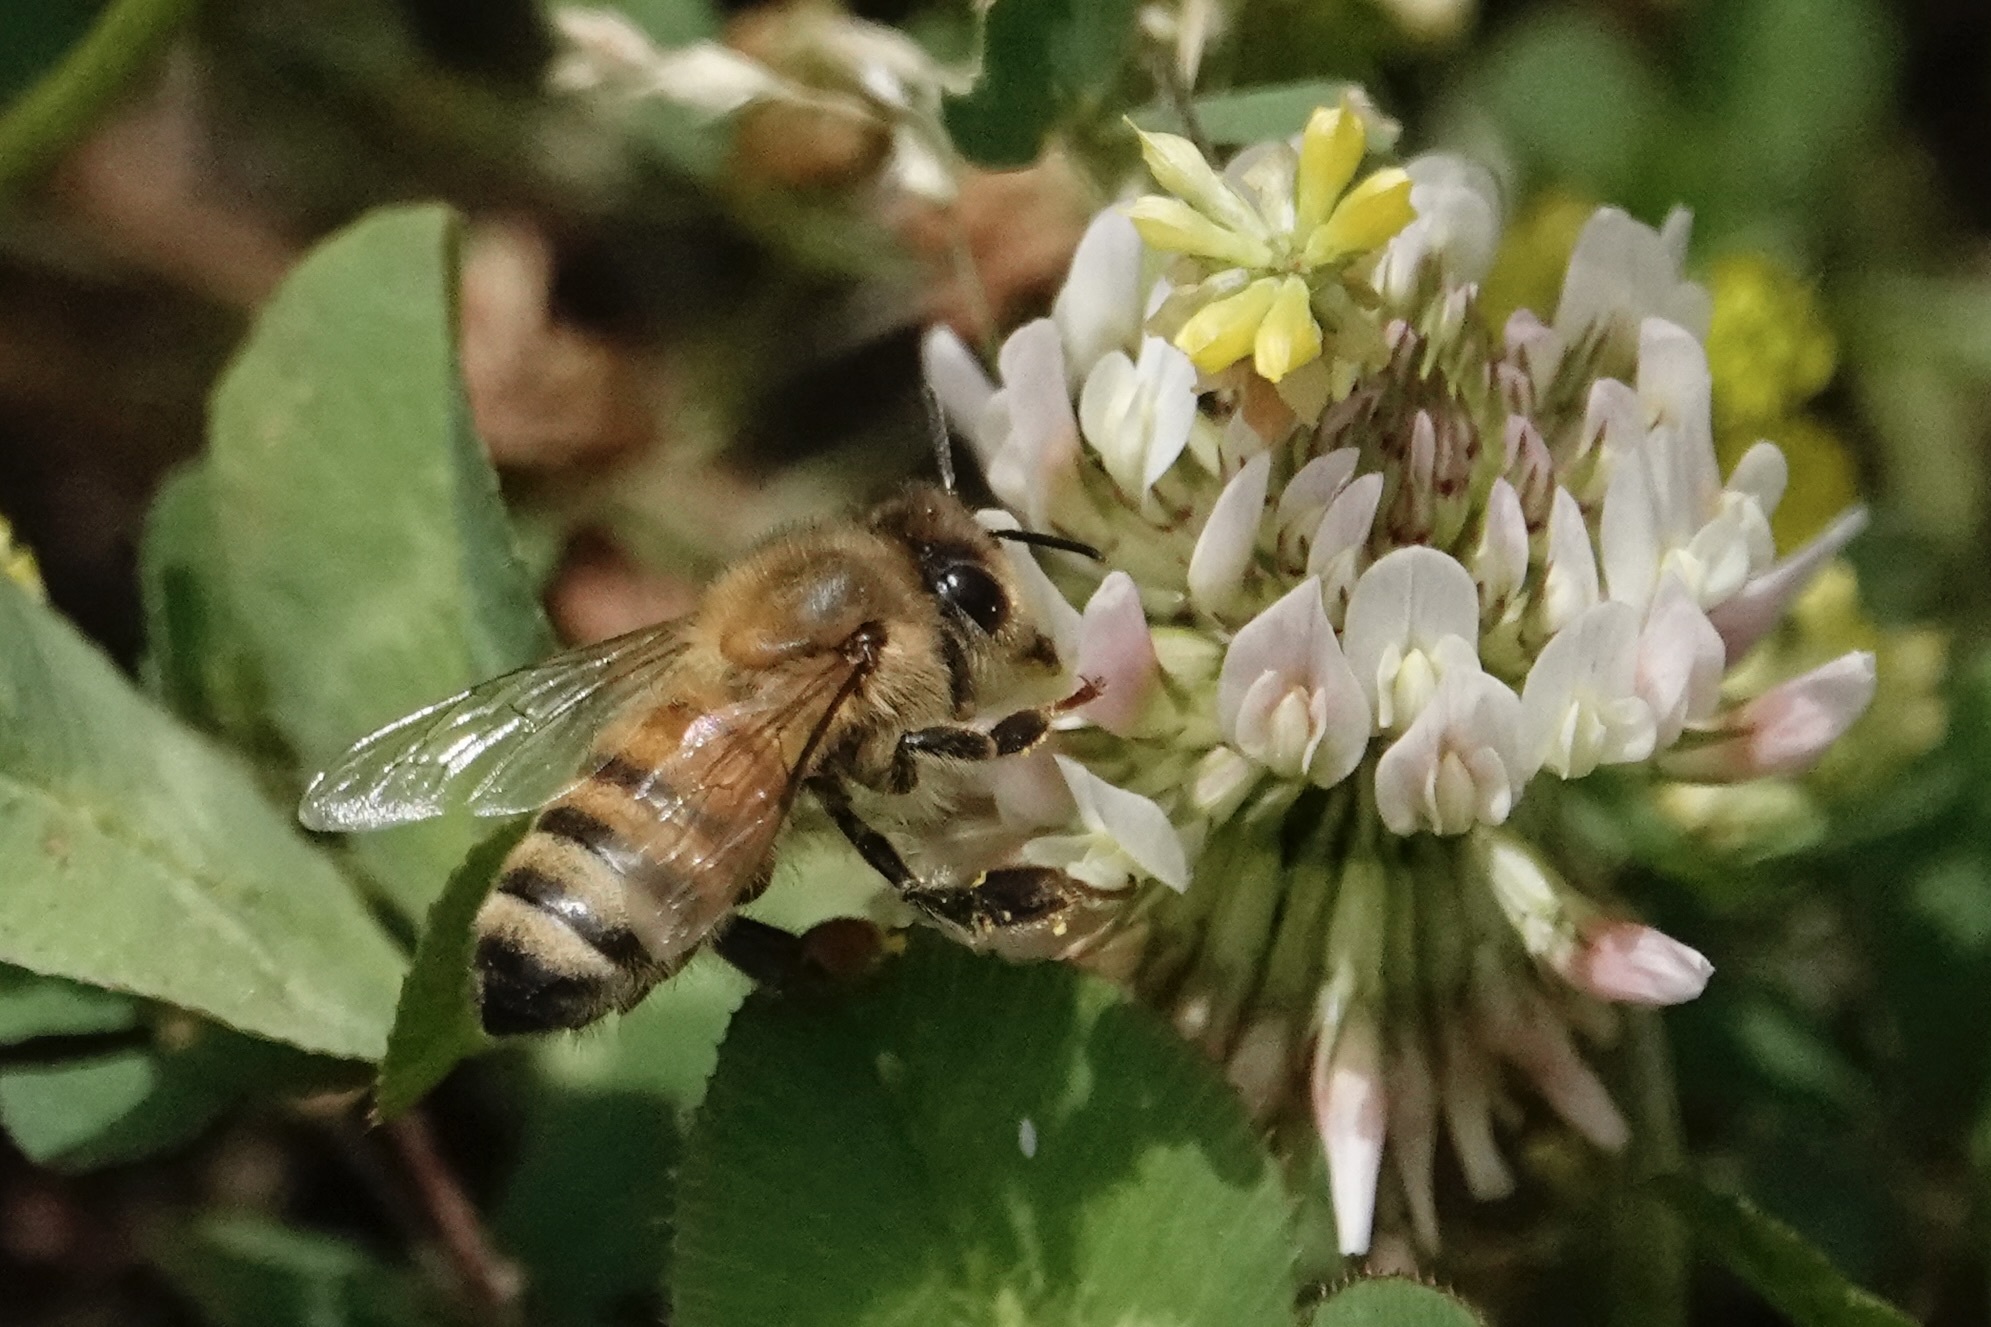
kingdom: Animalia
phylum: Arthropoda
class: Insecta
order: Hymenoptera
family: Apidae
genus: Apis
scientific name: Apis mellifera
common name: Honey bee
